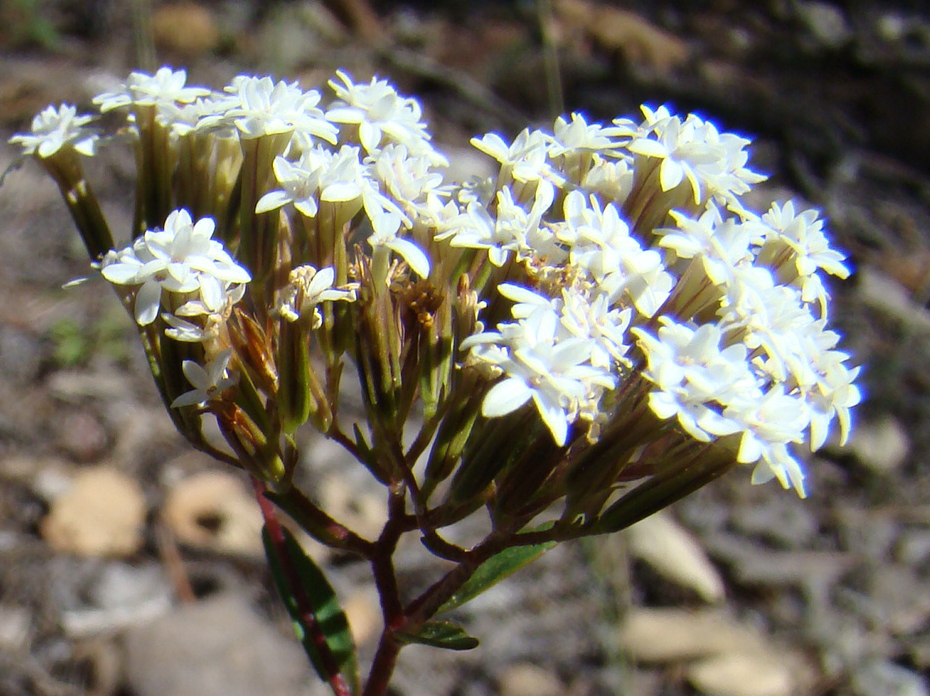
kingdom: Plantae
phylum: Tracheophyta
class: Magnoliopsida
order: Asterales
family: Asteraceae
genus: Stevia
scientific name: Stevia origanoides
